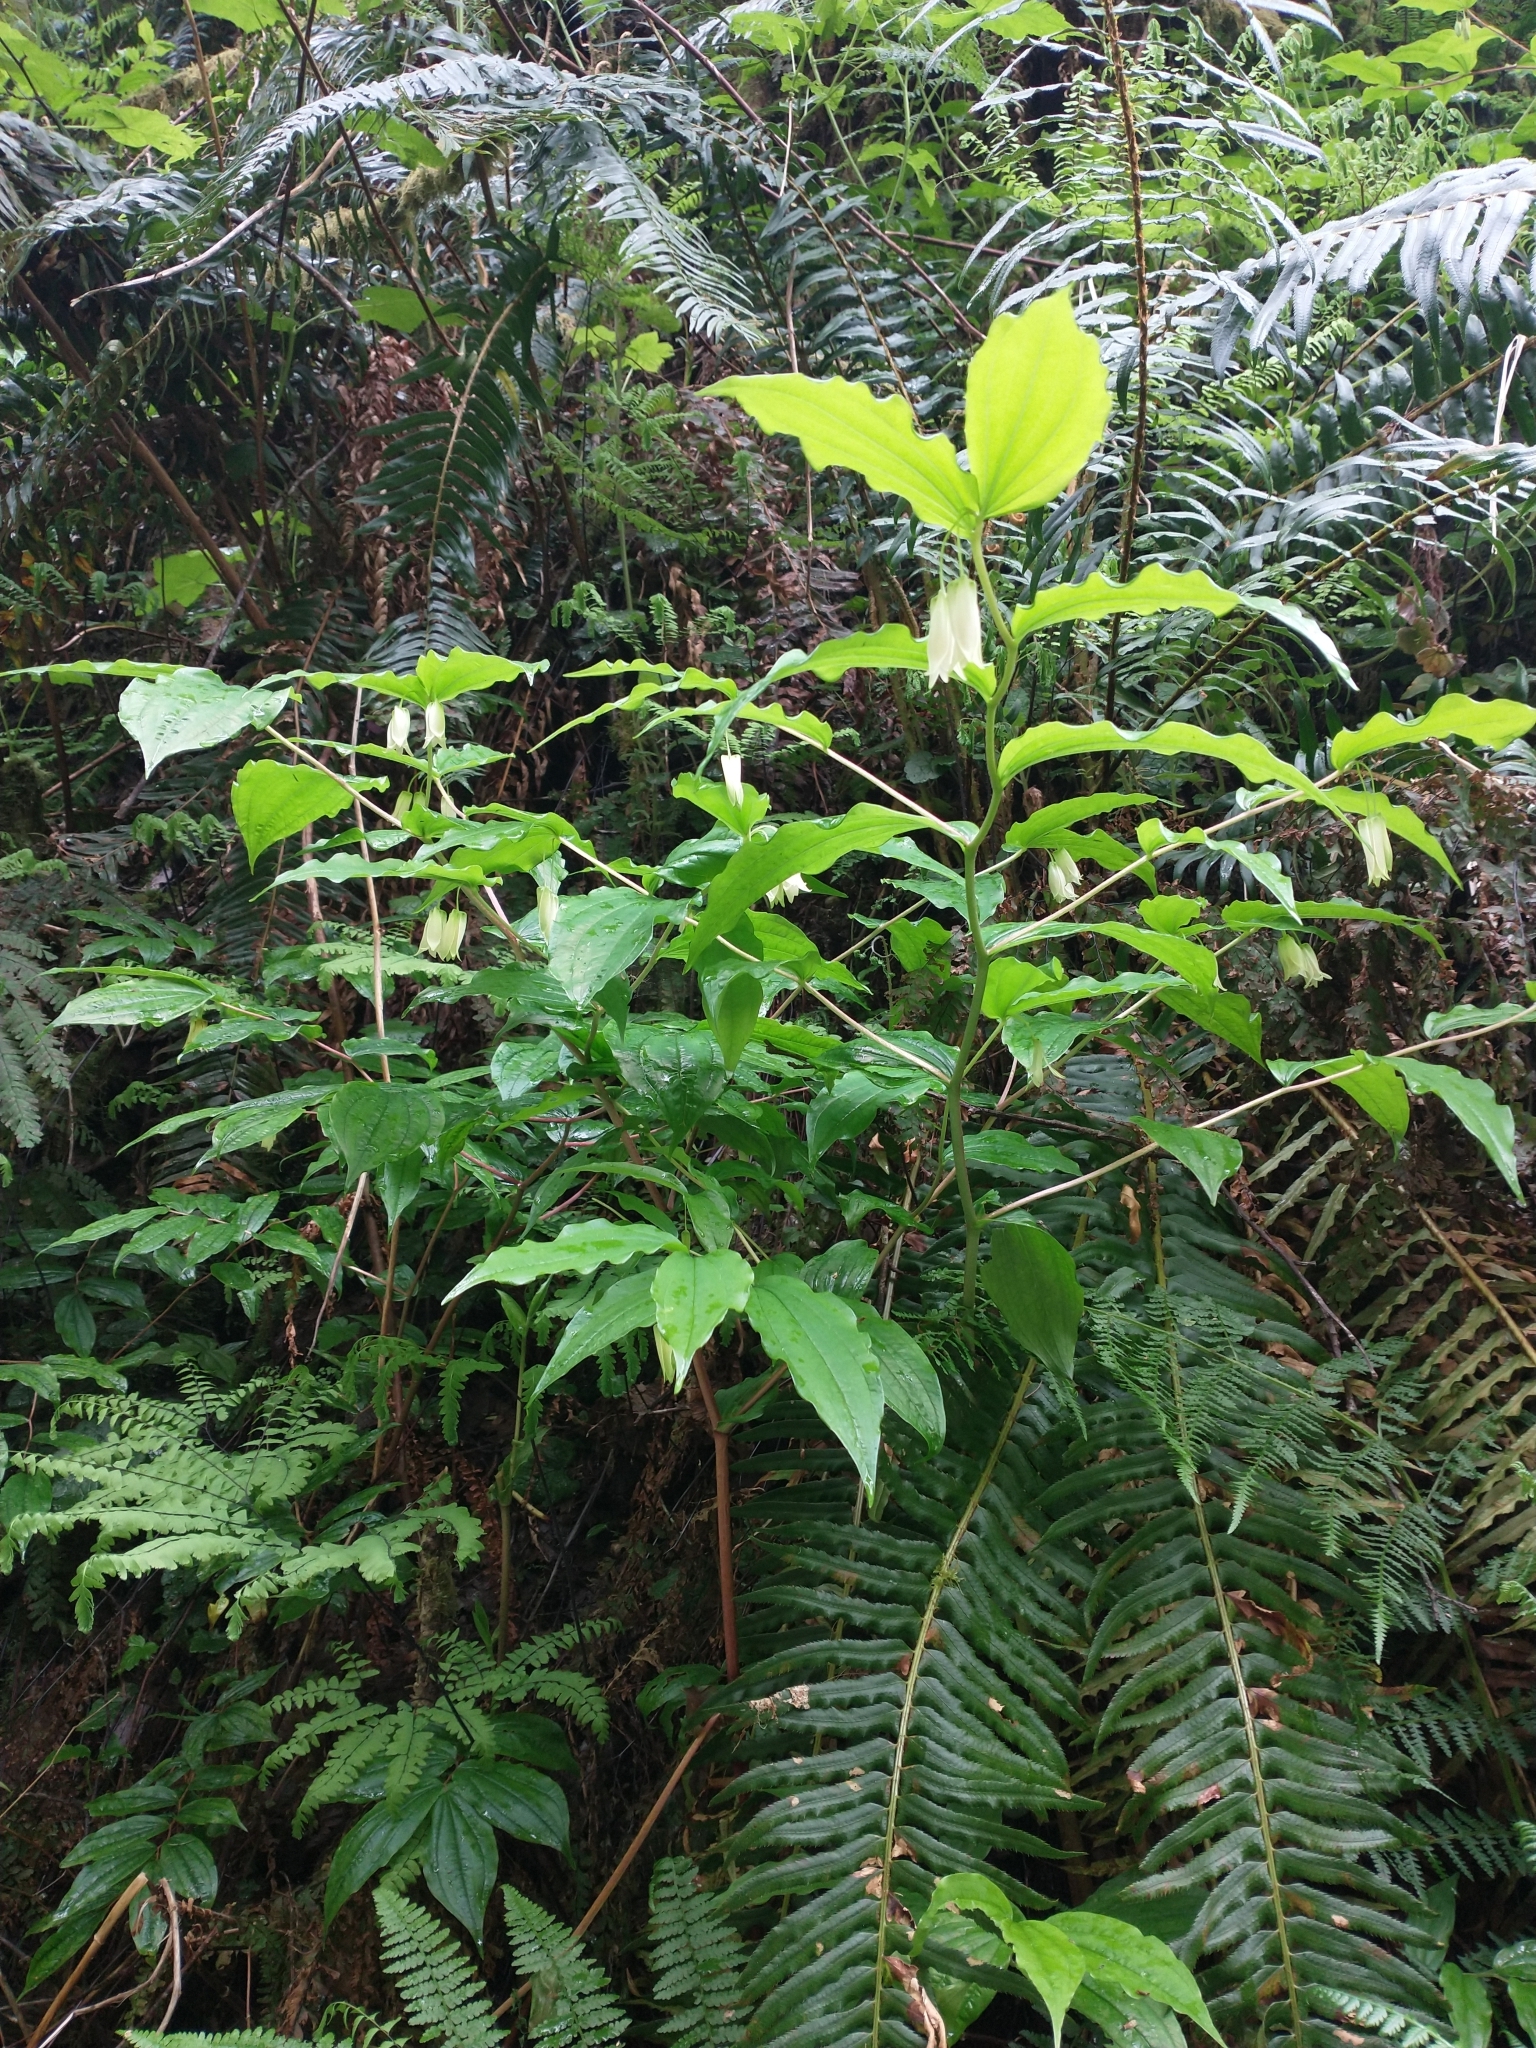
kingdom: Plantae
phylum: Tracheophyta
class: Liliopsida
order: Liliales
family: Liliaceae
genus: Prosartes
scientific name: Prosartes smithii
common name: Fairy-lantern
